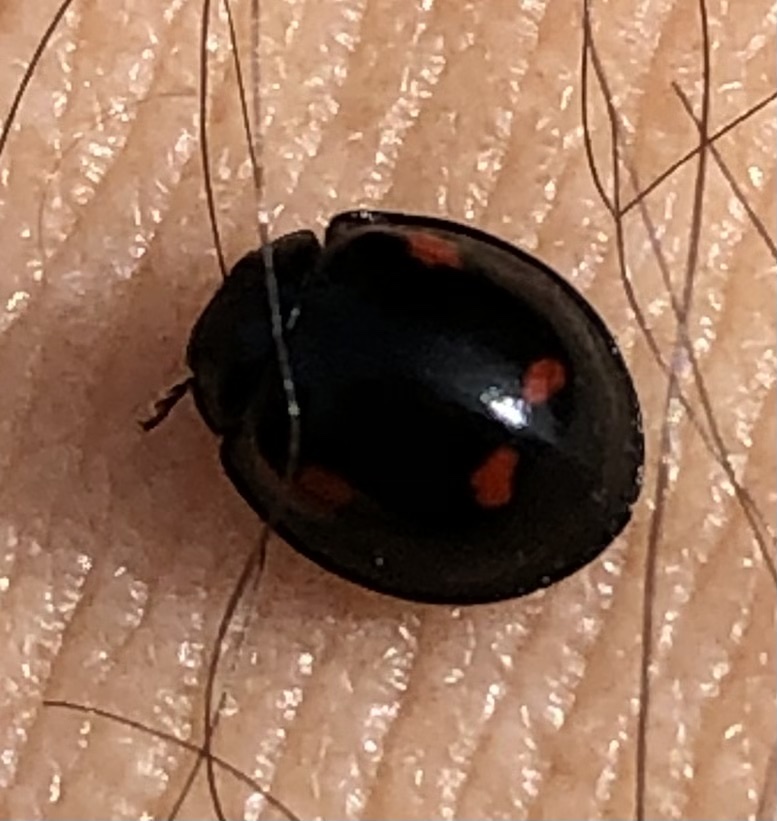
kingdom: Animalia
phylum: Arthropoda
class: Insecta
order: Coleoptera
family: Coccinellidae
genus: Brumus
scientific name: Brumus quadripustulatus
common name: Ladybird beetle
